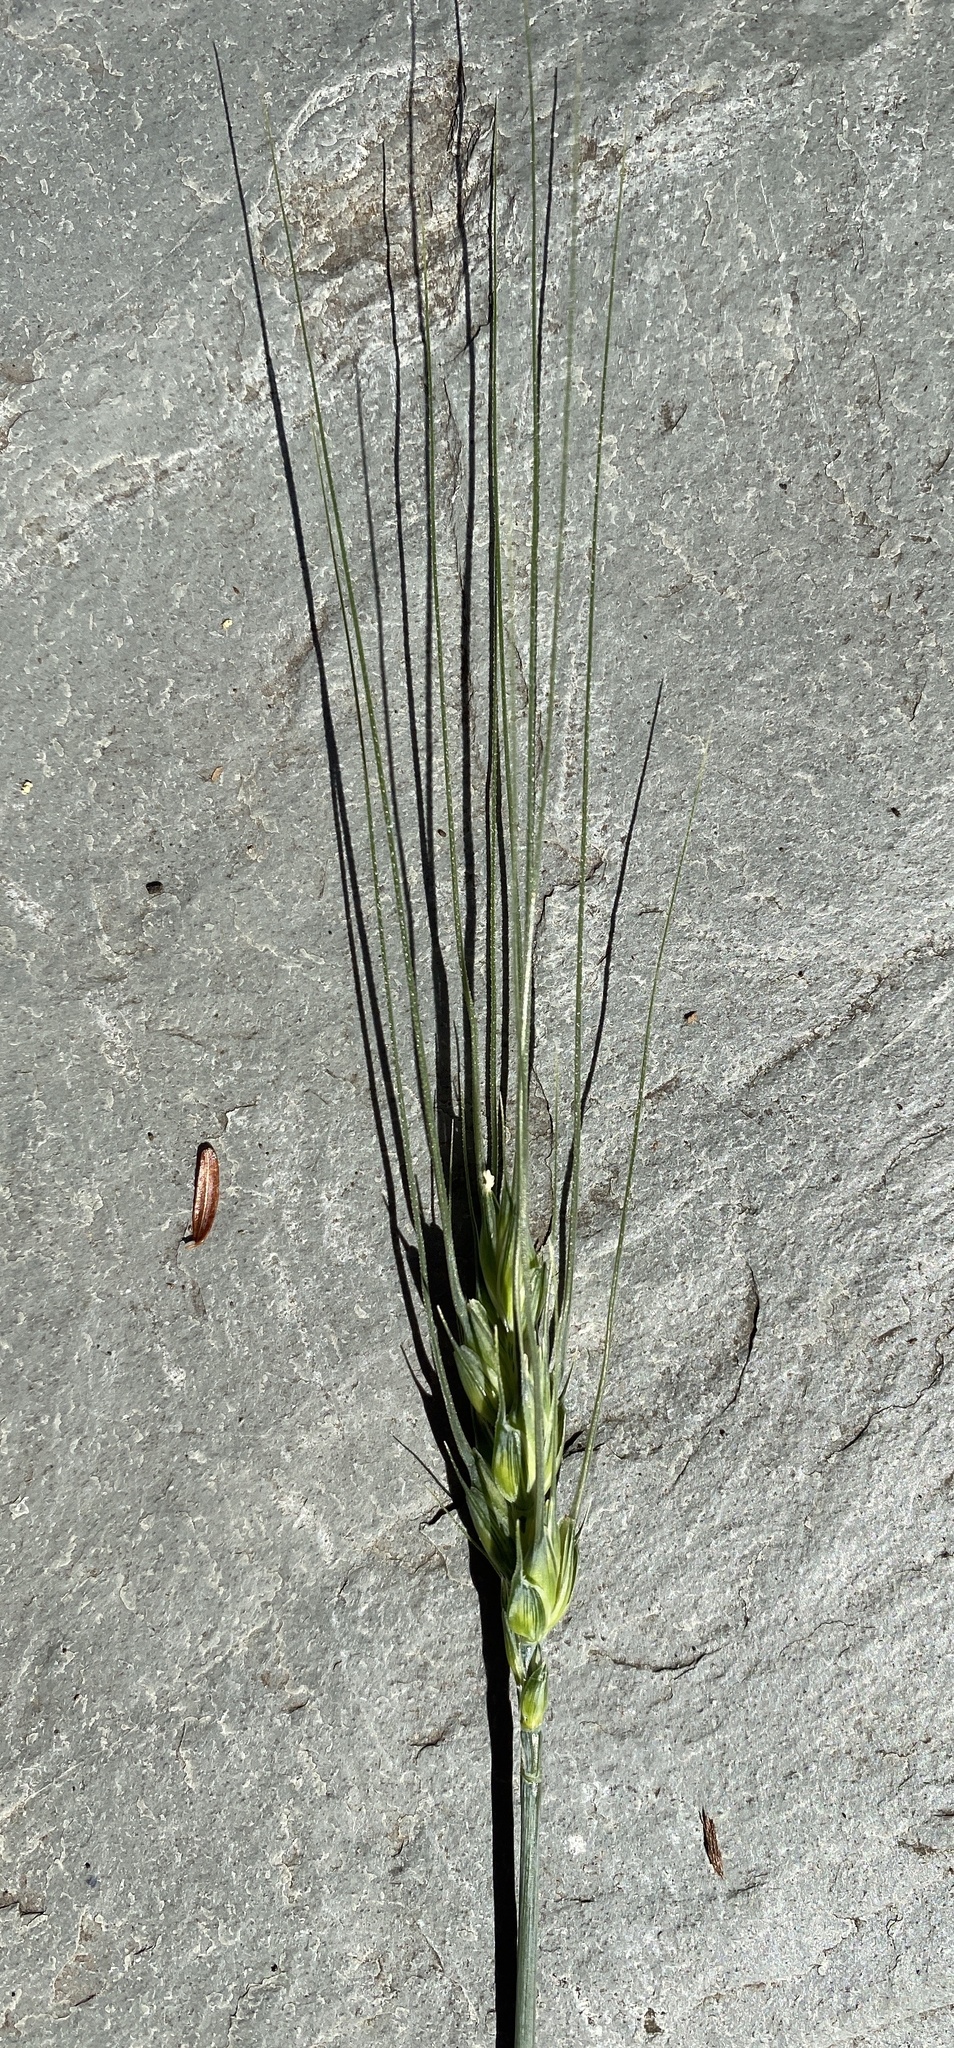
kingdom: Plantae
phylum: Tracheophyta
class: Liliopsida
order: Poales
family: Poaceae
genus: Triticum
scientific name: Triticum aestivum
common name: Common wheat
